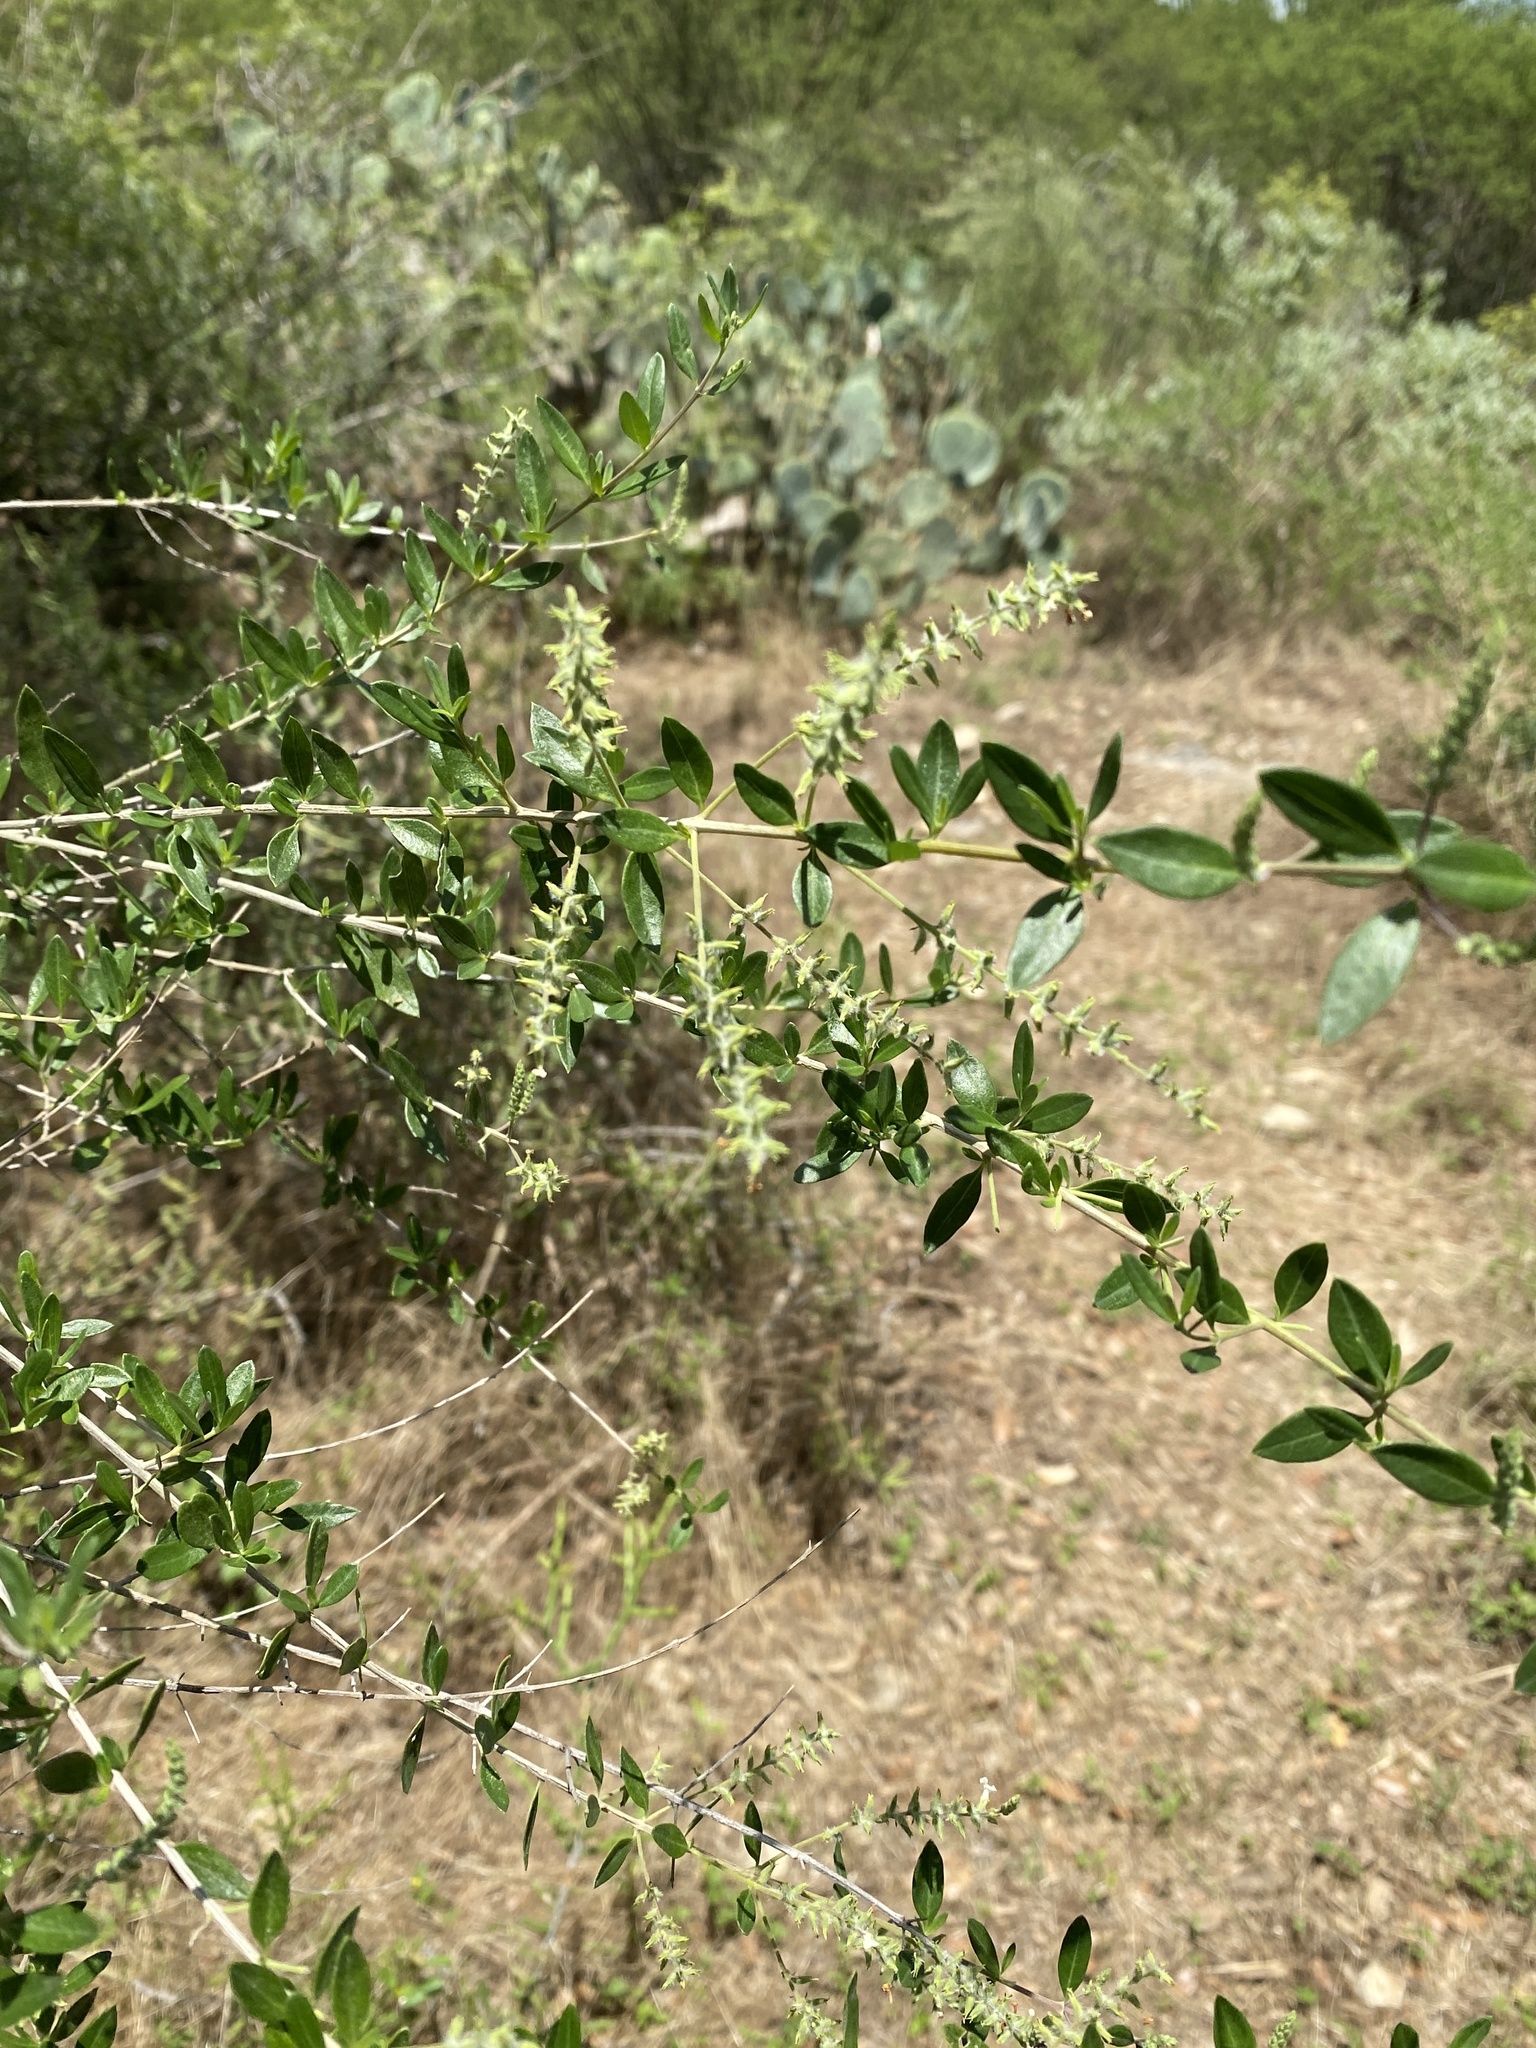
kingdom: Plantae
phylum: Tracheophyta
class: Magnoliopsida
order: Lamiales
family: Verbenaceae
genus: Aloysia
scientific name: Aloysia gratissima
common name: Common bee-brush
